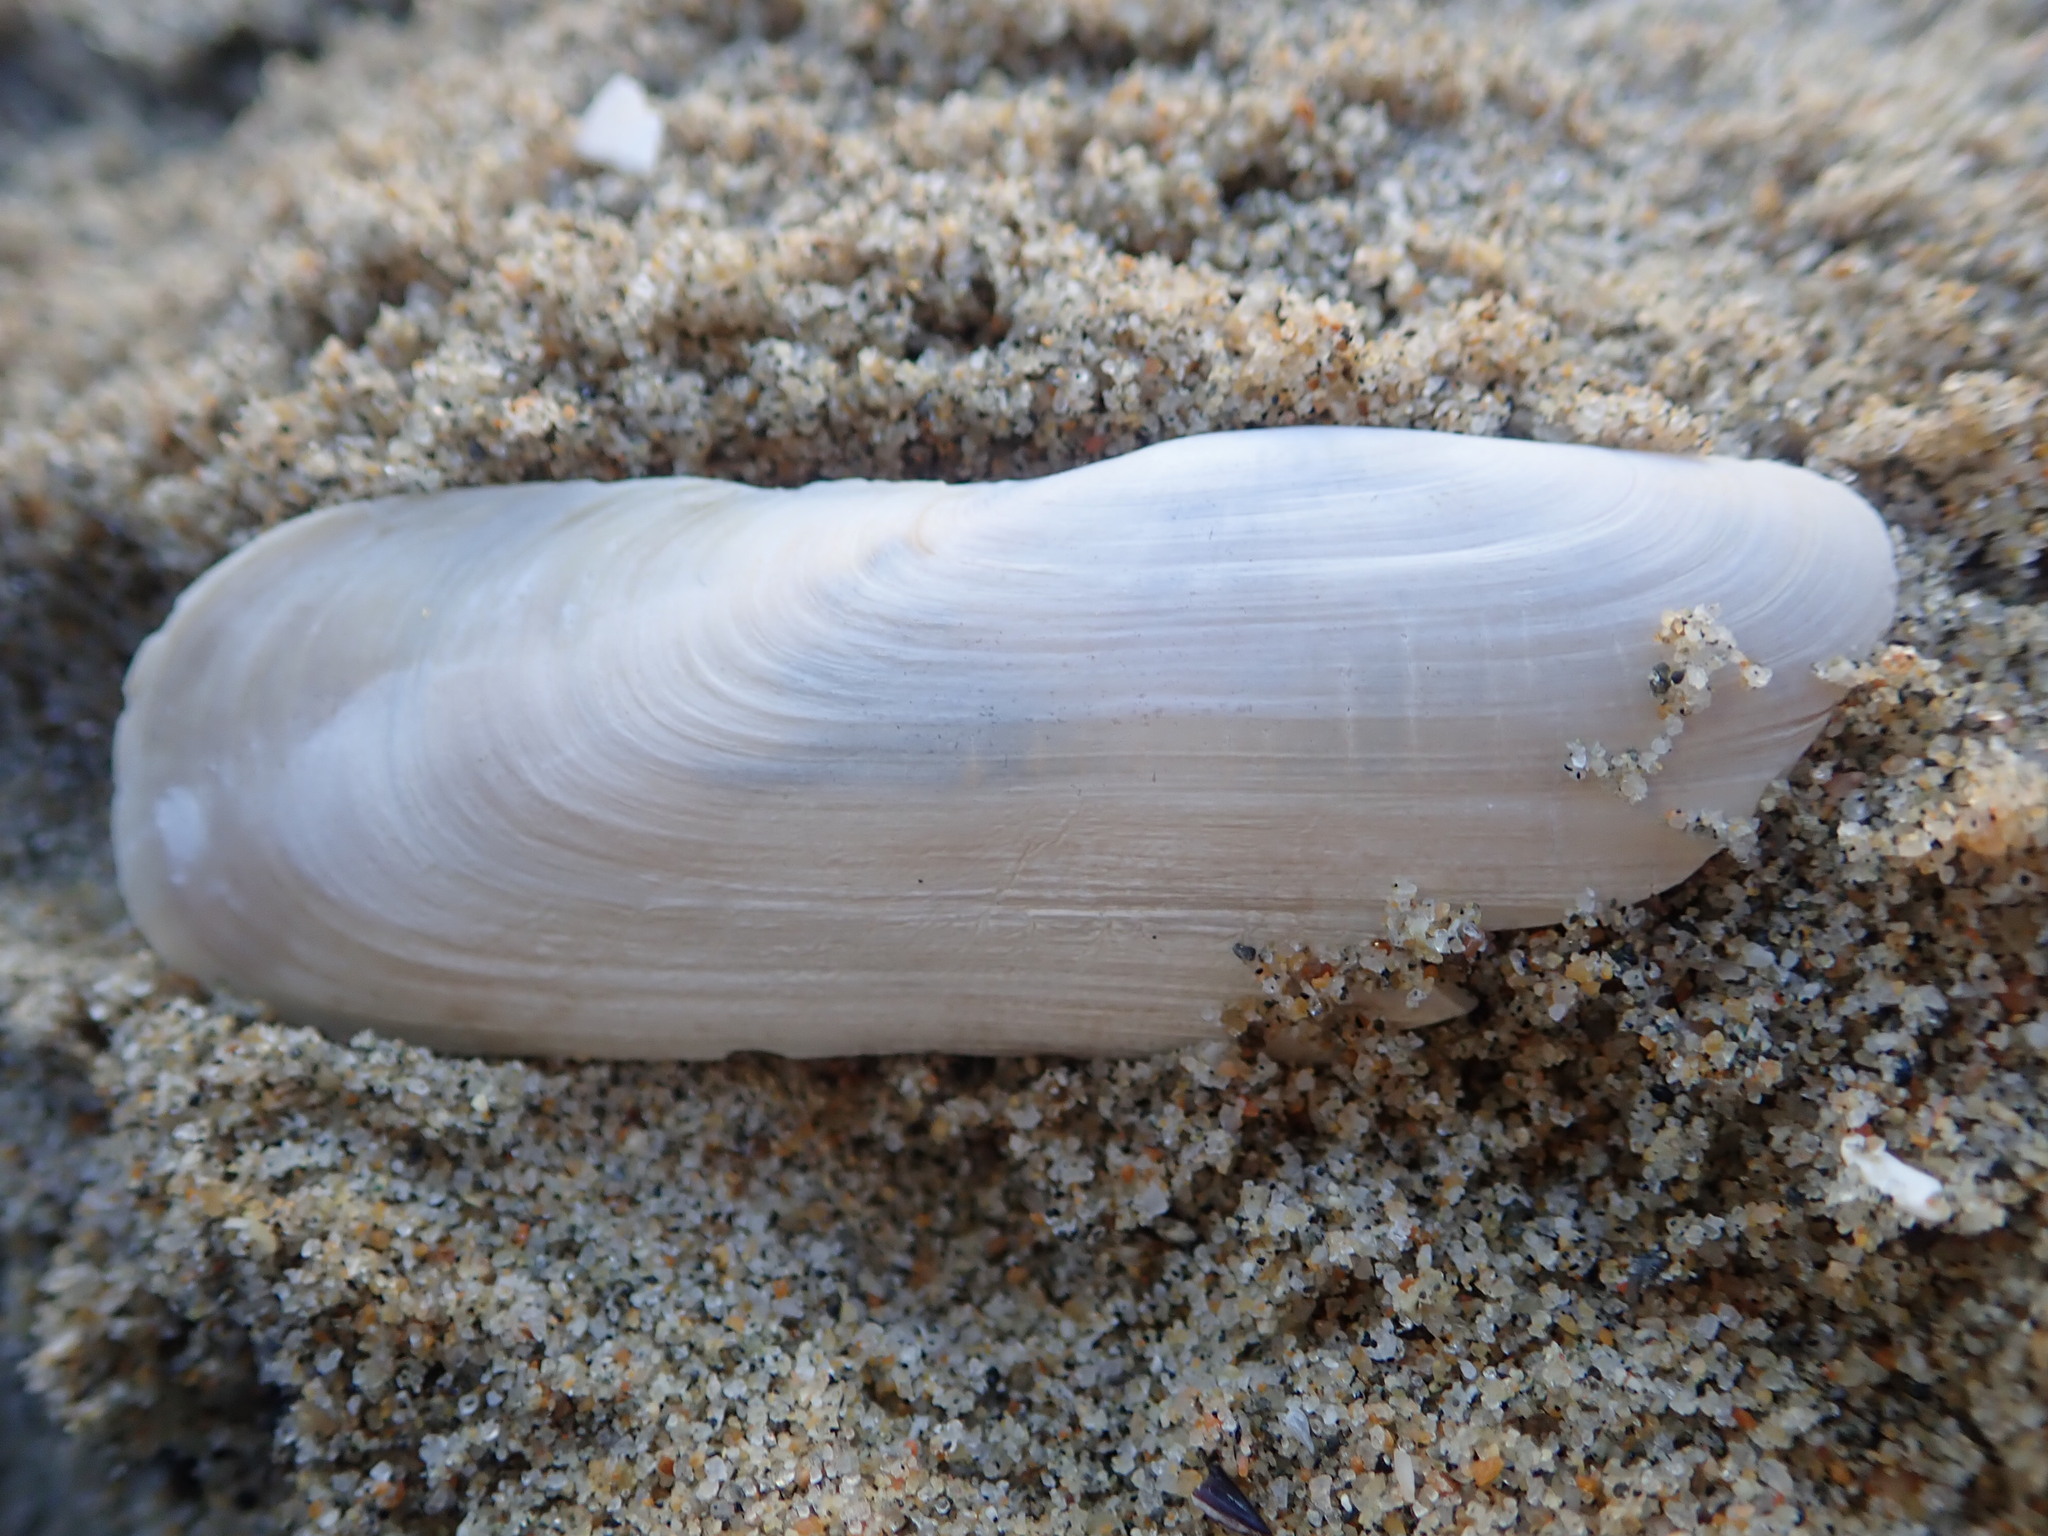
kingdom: Animalia
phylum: Mollusca
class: Bivalvia
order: Cardiida
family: Solecurtidae
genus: Tagelus
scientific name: Tagelus californianus
